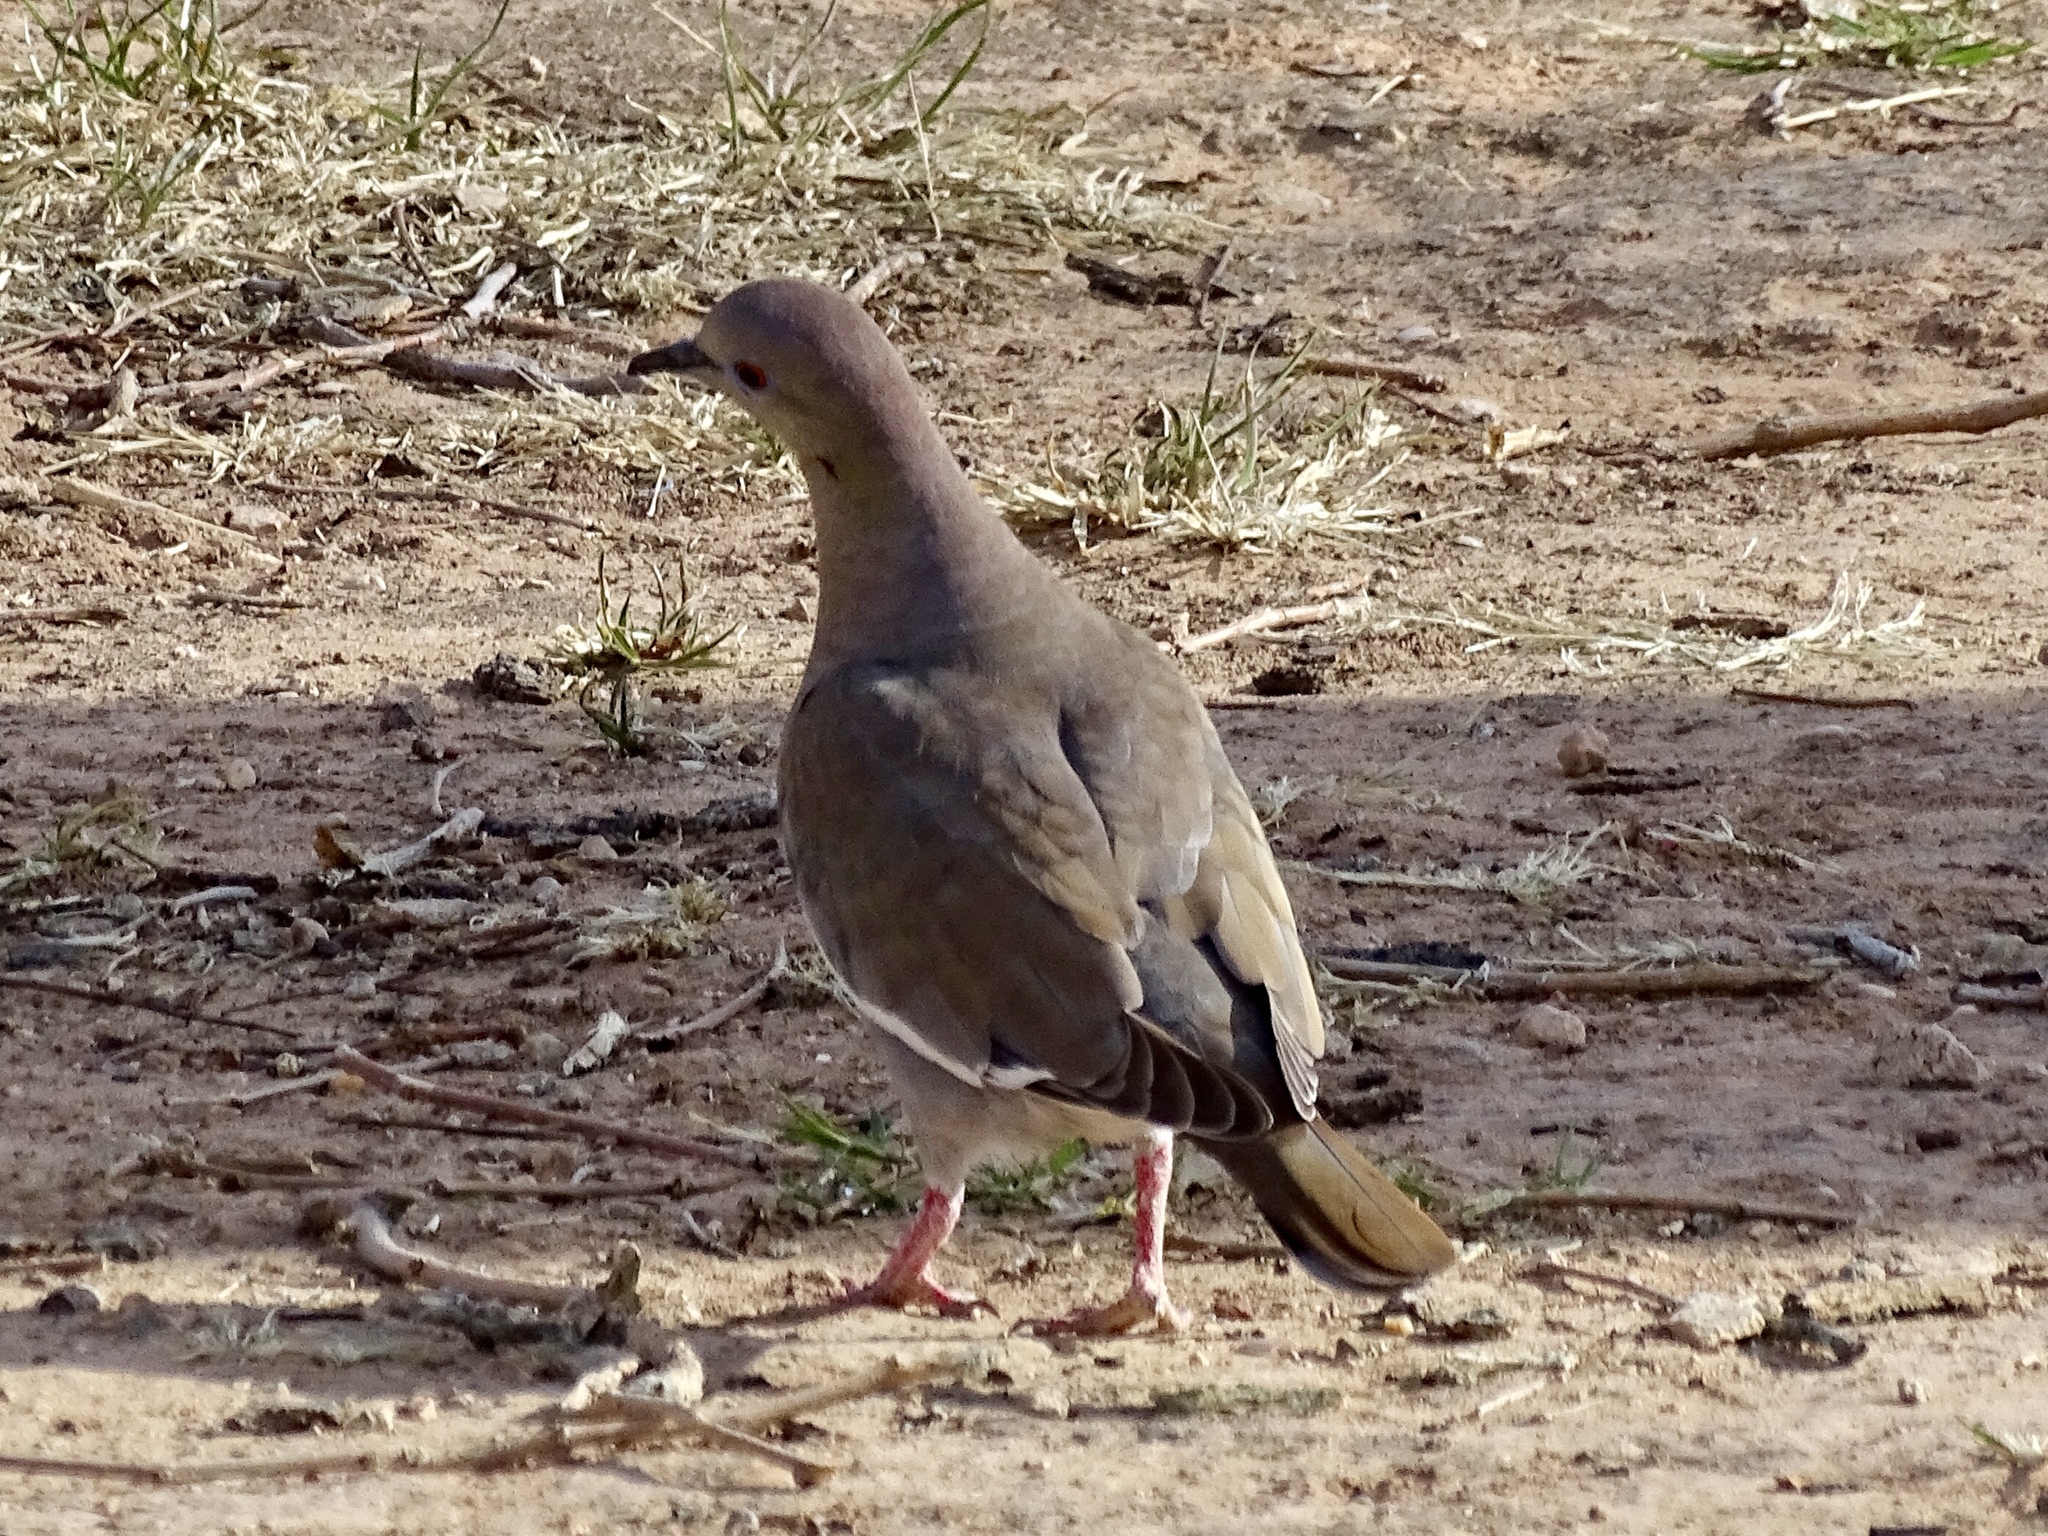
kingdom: Animalia
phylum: Chordata
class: Aves
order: Columbiformes
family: Columbidae
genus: Zenaida
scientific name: Zenaida asiatica
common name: White-winged dove
